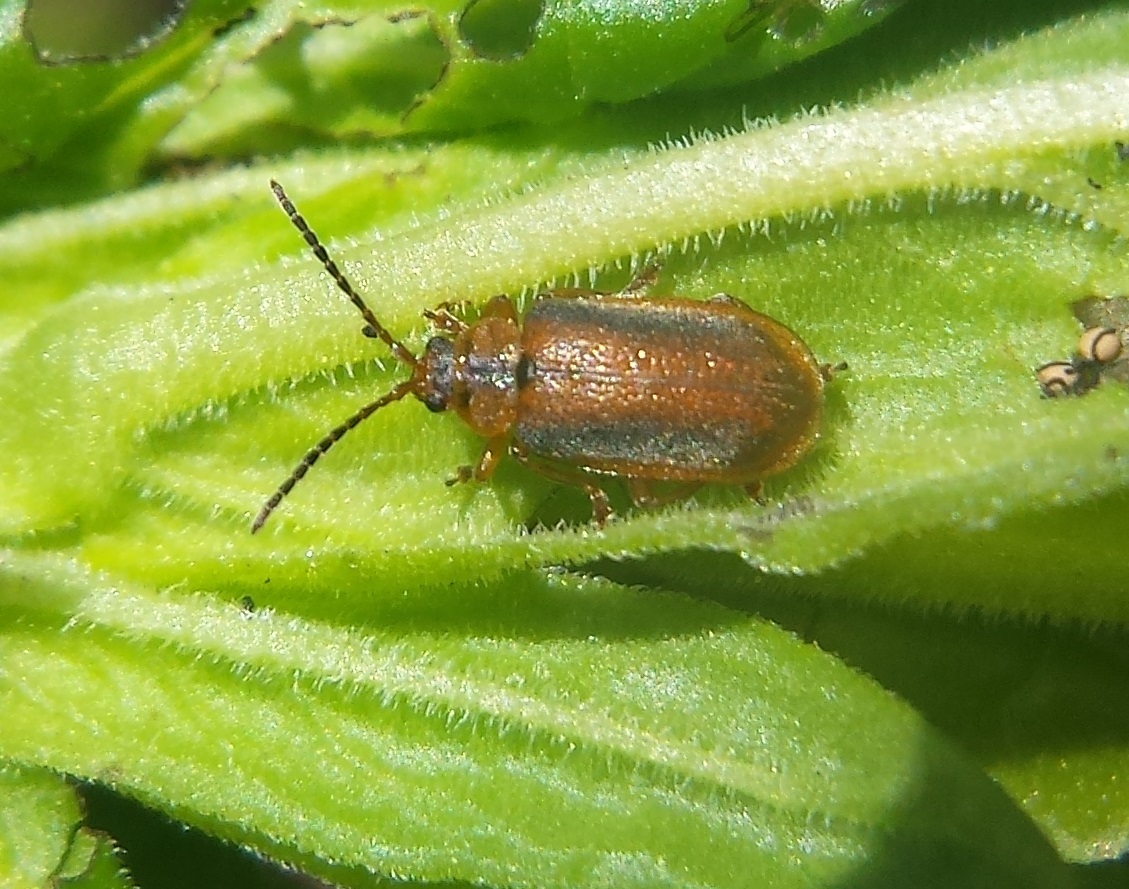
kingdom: Animalia
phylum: Arthropoda
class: Insecta
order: Coleoptera
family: Chrysomelidae
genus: Neogalerucella
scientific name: Neogalerucella calmariensis
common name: Black-margined loosestrife beetle
